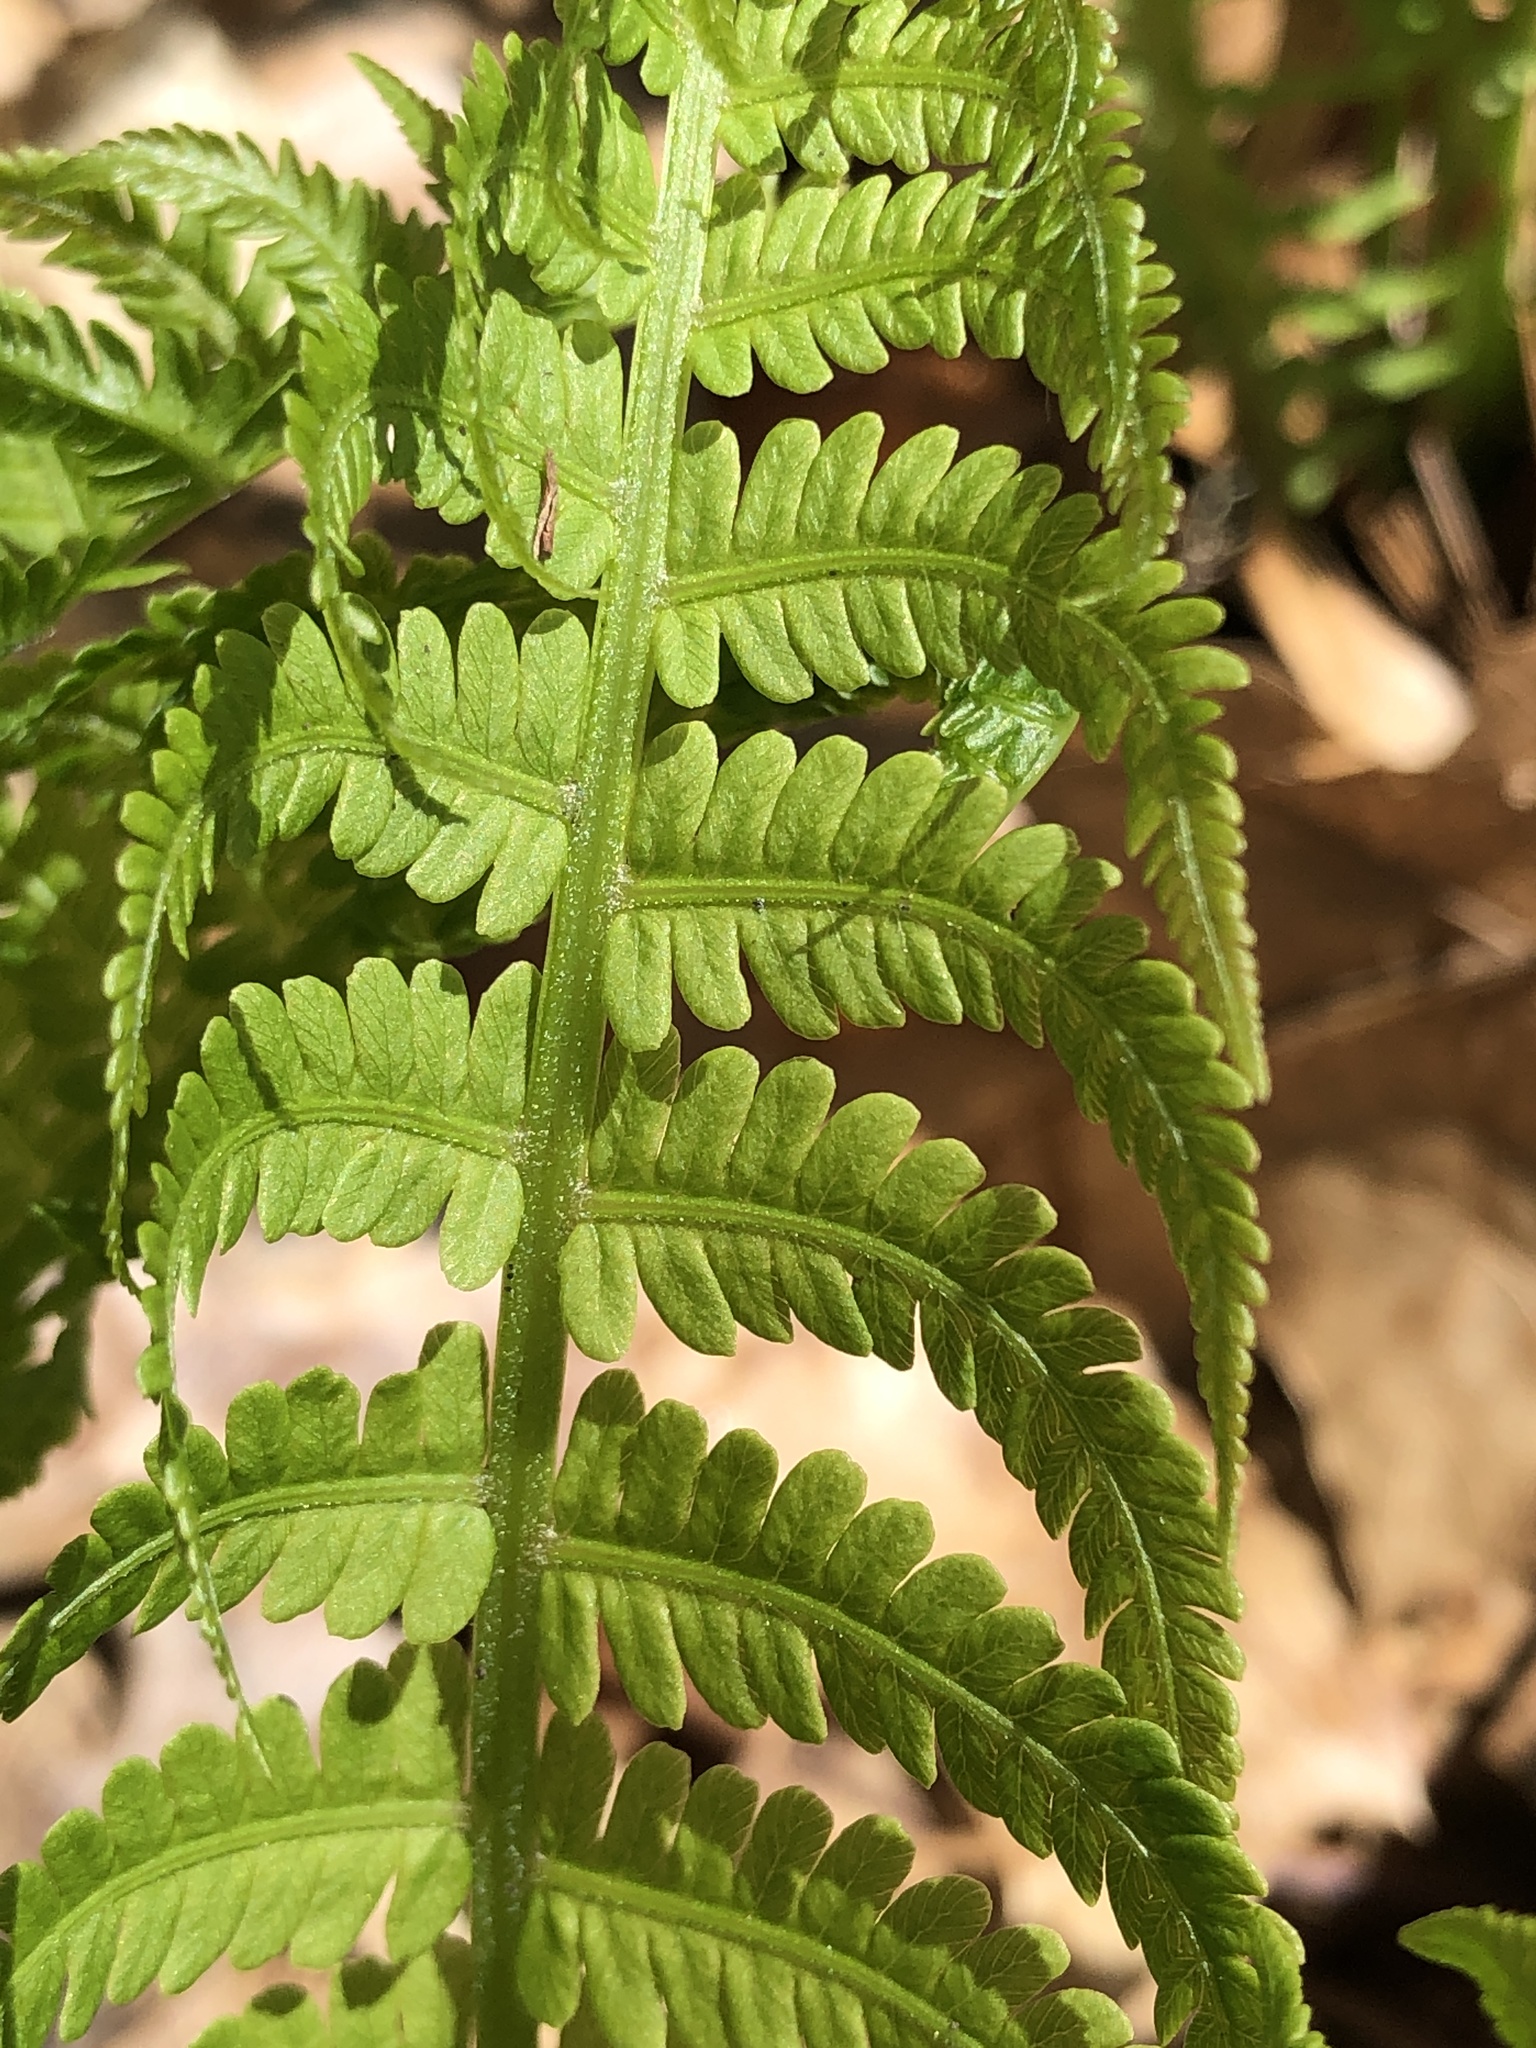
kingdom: Plantae
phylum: Tracheophyta
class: Polypodiopsida
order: Polypodiales
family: Onocleaceae
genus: Matteuccia
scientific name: Matteuccia struthiopteris
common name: Ostrich fern
